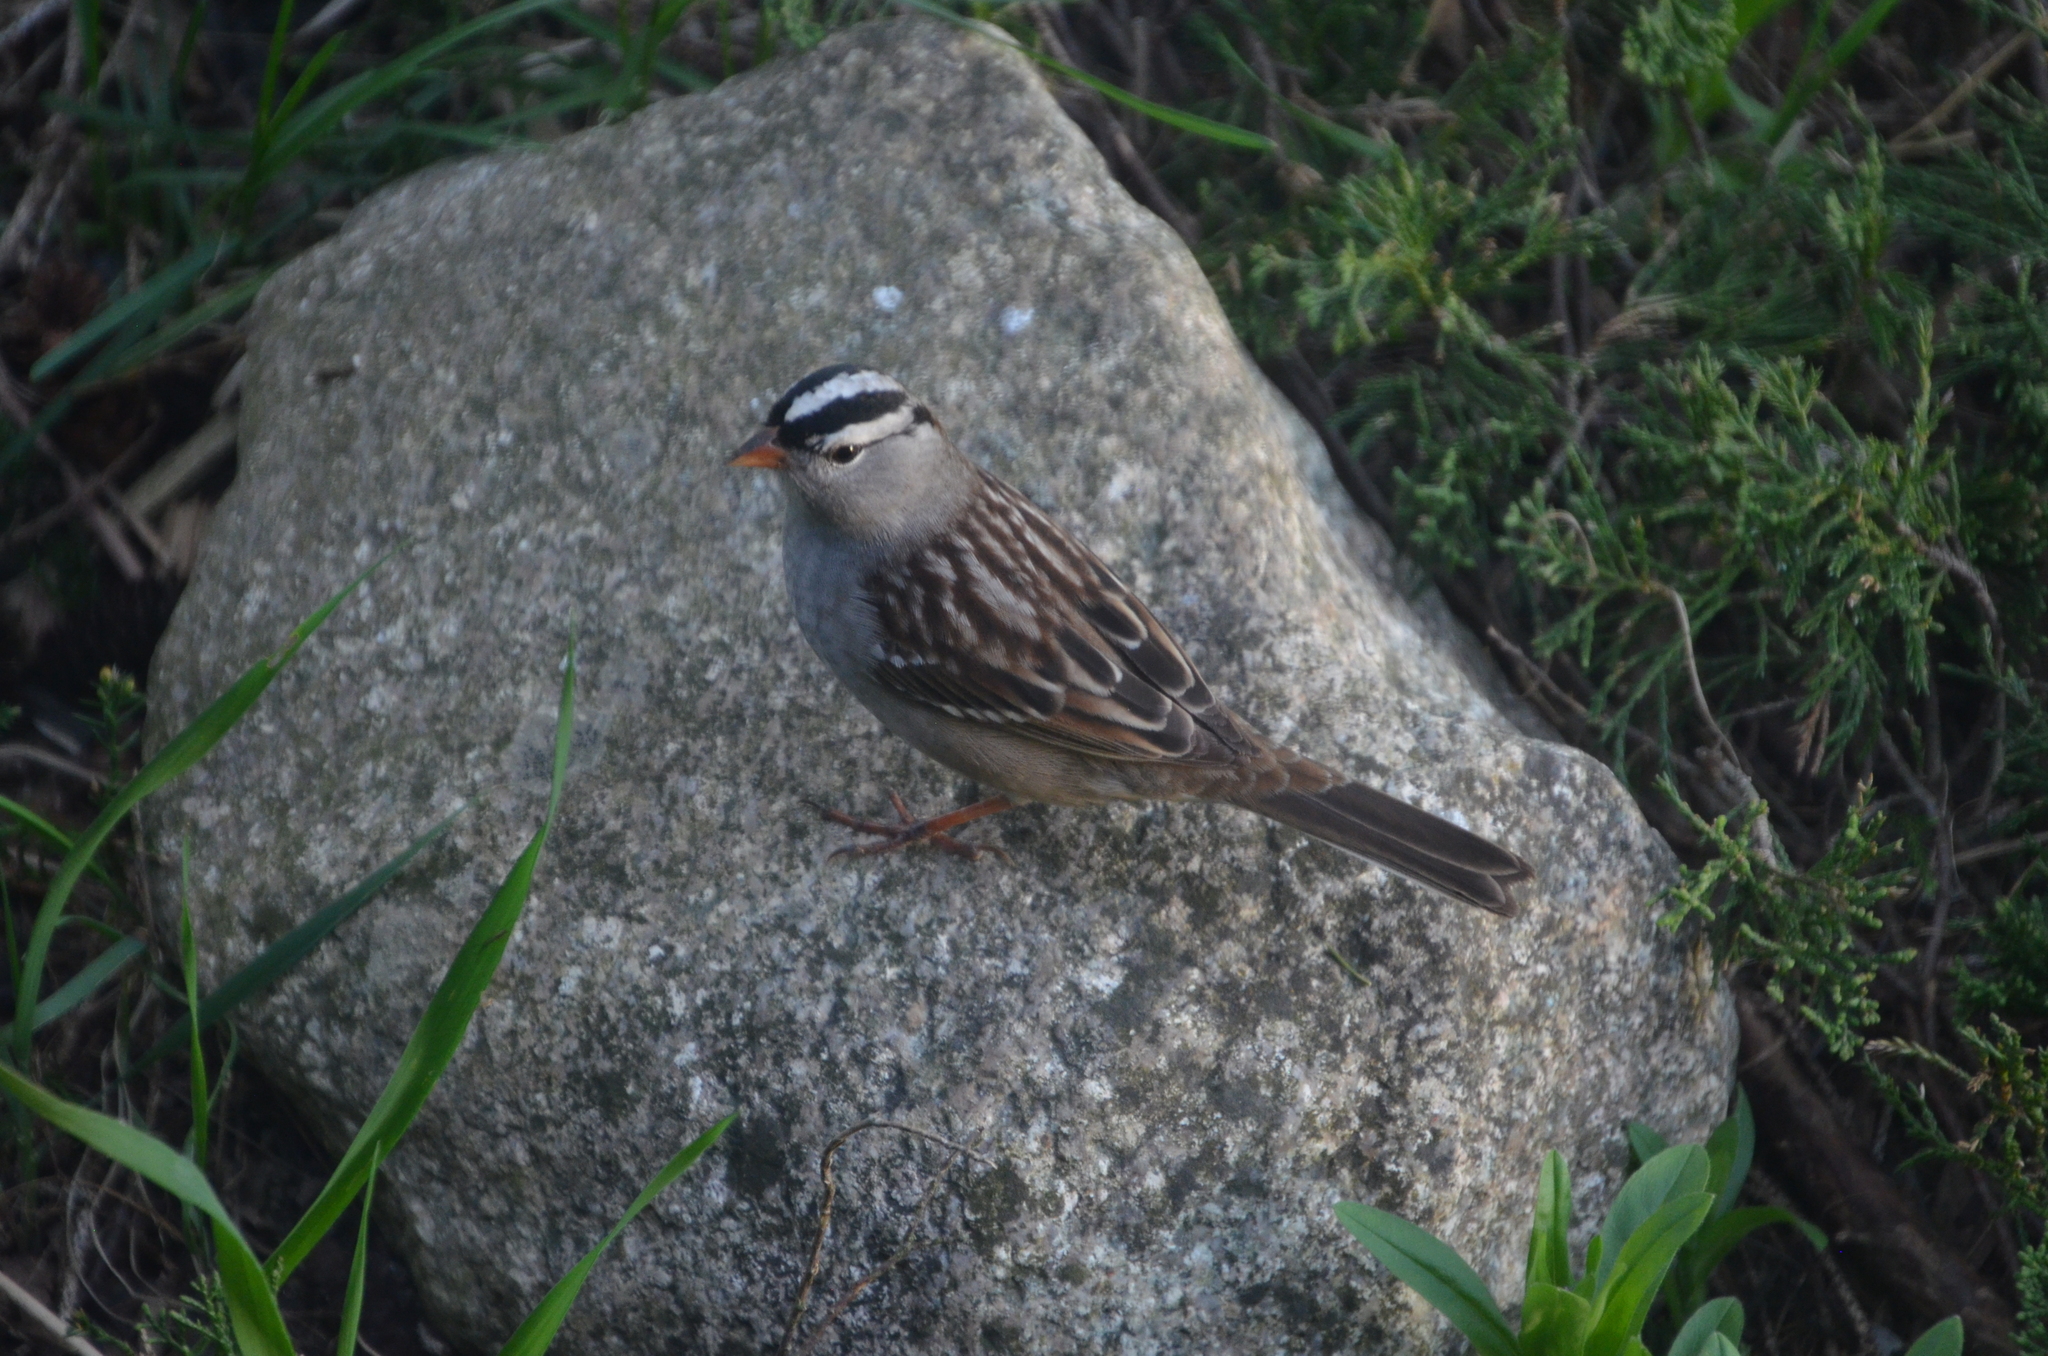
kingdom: Animalia
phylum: Chordata
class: Aves
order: Passeriformes
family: Passerellidae
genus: Zonotrichia
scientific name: Zonotrichia leucophrys
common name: White-crowned sparrow
